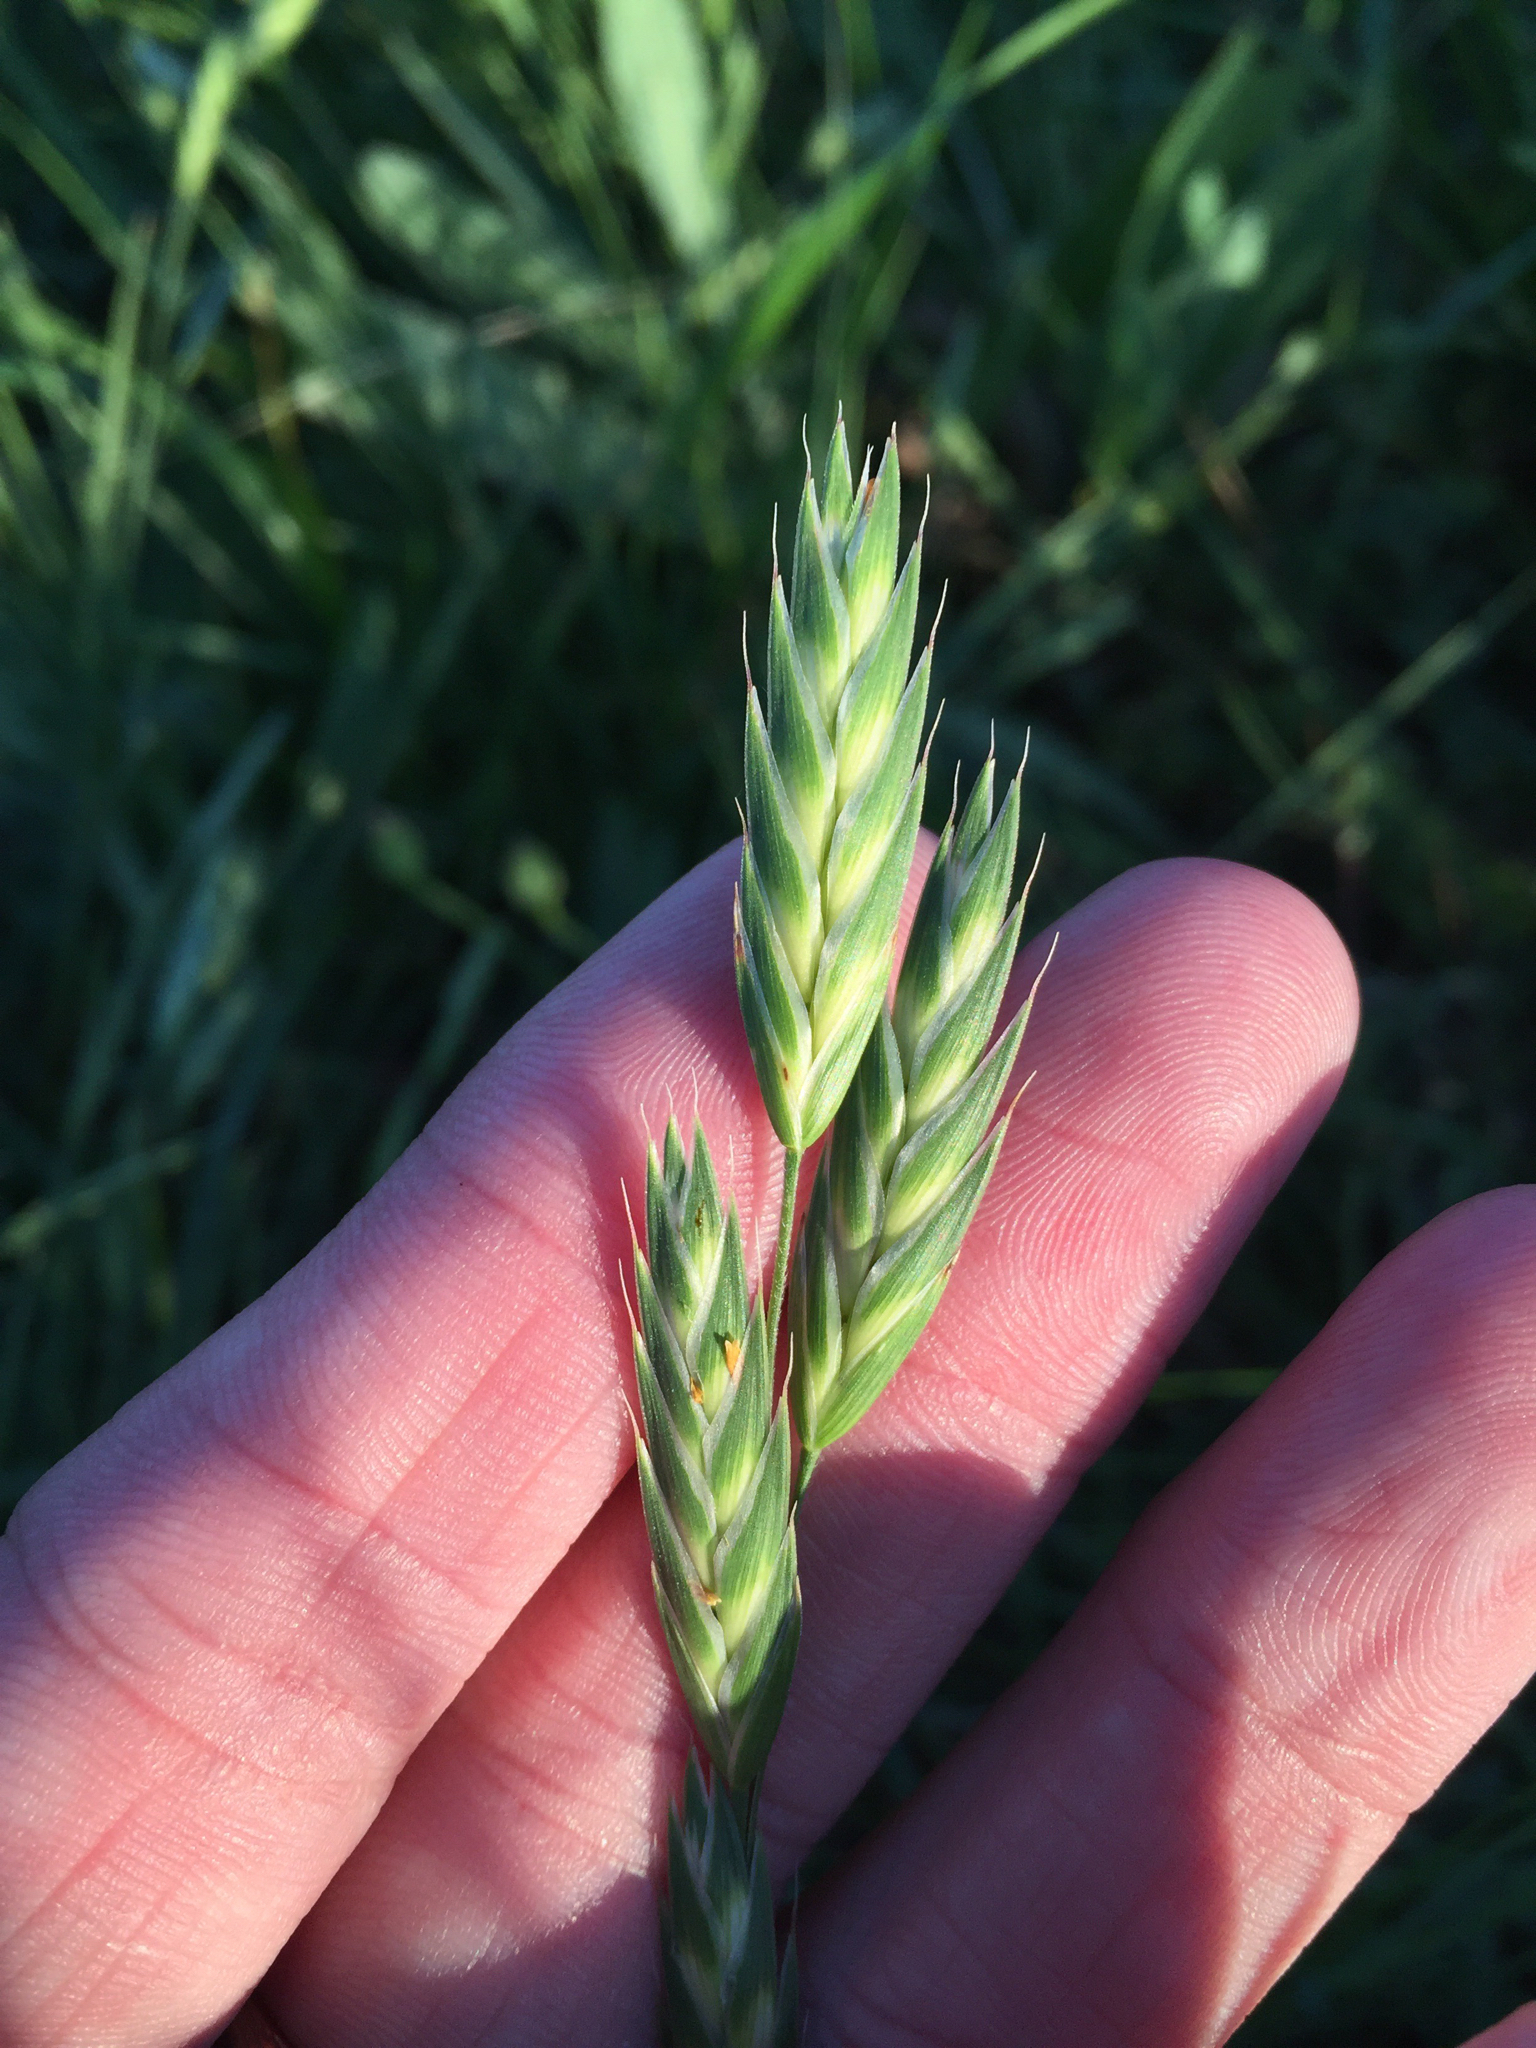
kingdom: Plantae
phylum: Tracheophyta
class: Liliopsida
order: Poales
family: Poaceae
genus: Bromus
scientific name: Bromus catharticus
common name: Rescuegrass
